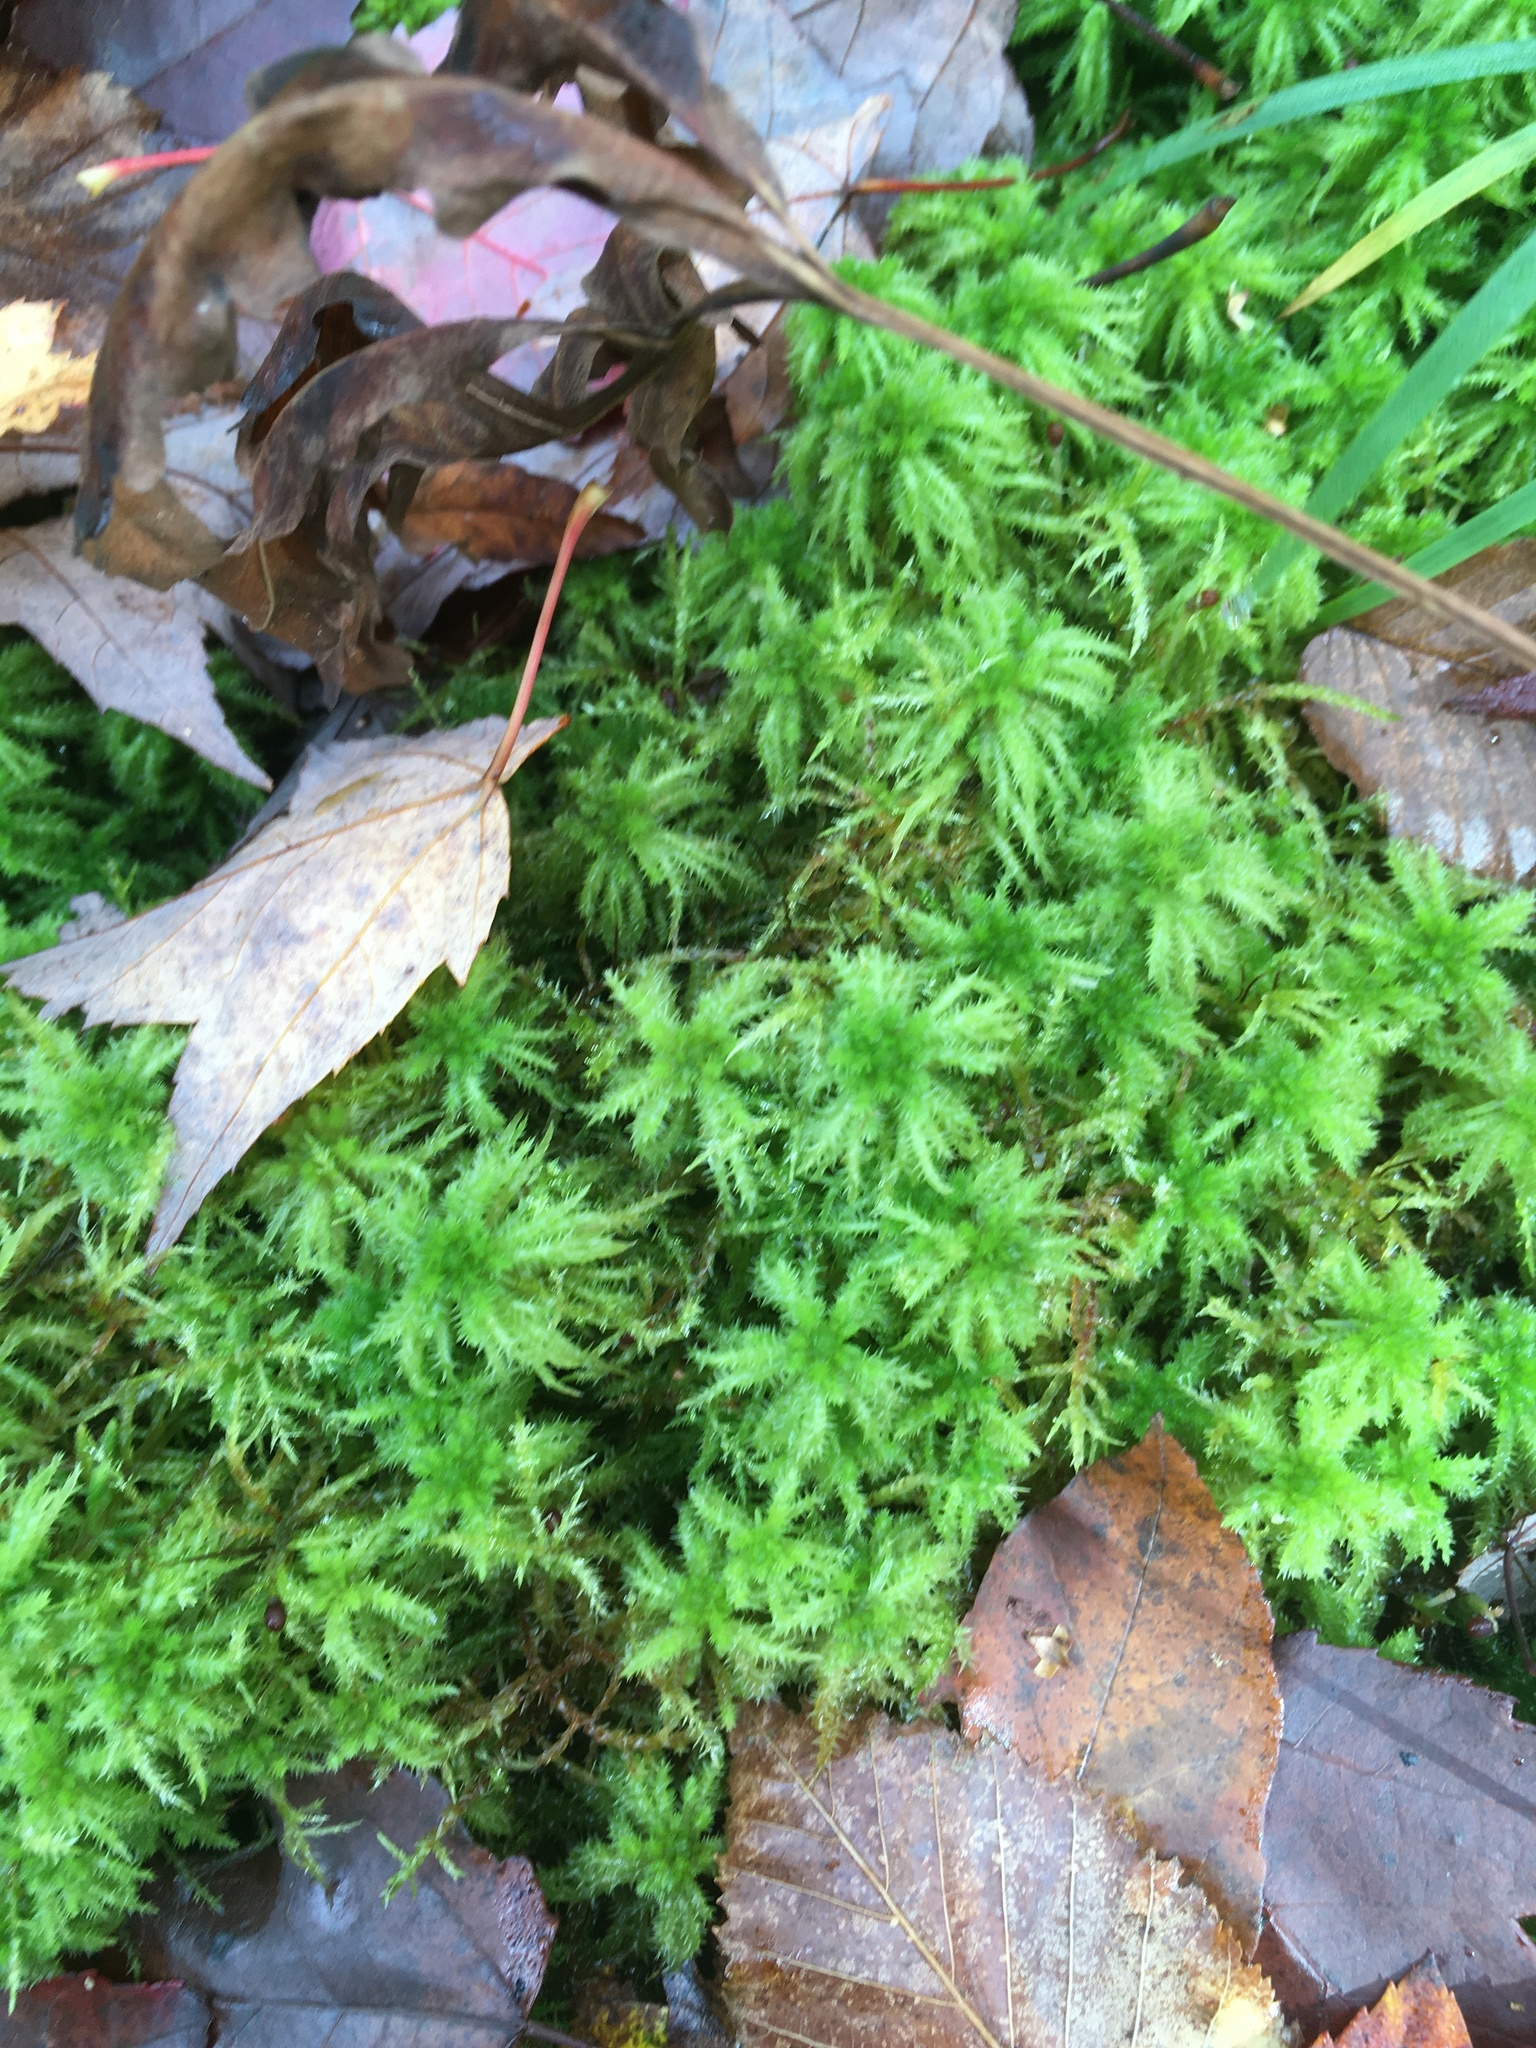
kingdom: Plantae
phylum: Bryophyta
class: Sphagnopsida
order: Sphagnales
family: Sphagnaceae
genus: Sphagnum
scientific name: Sphagnum squarrosum
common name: Shaggy peat moss
